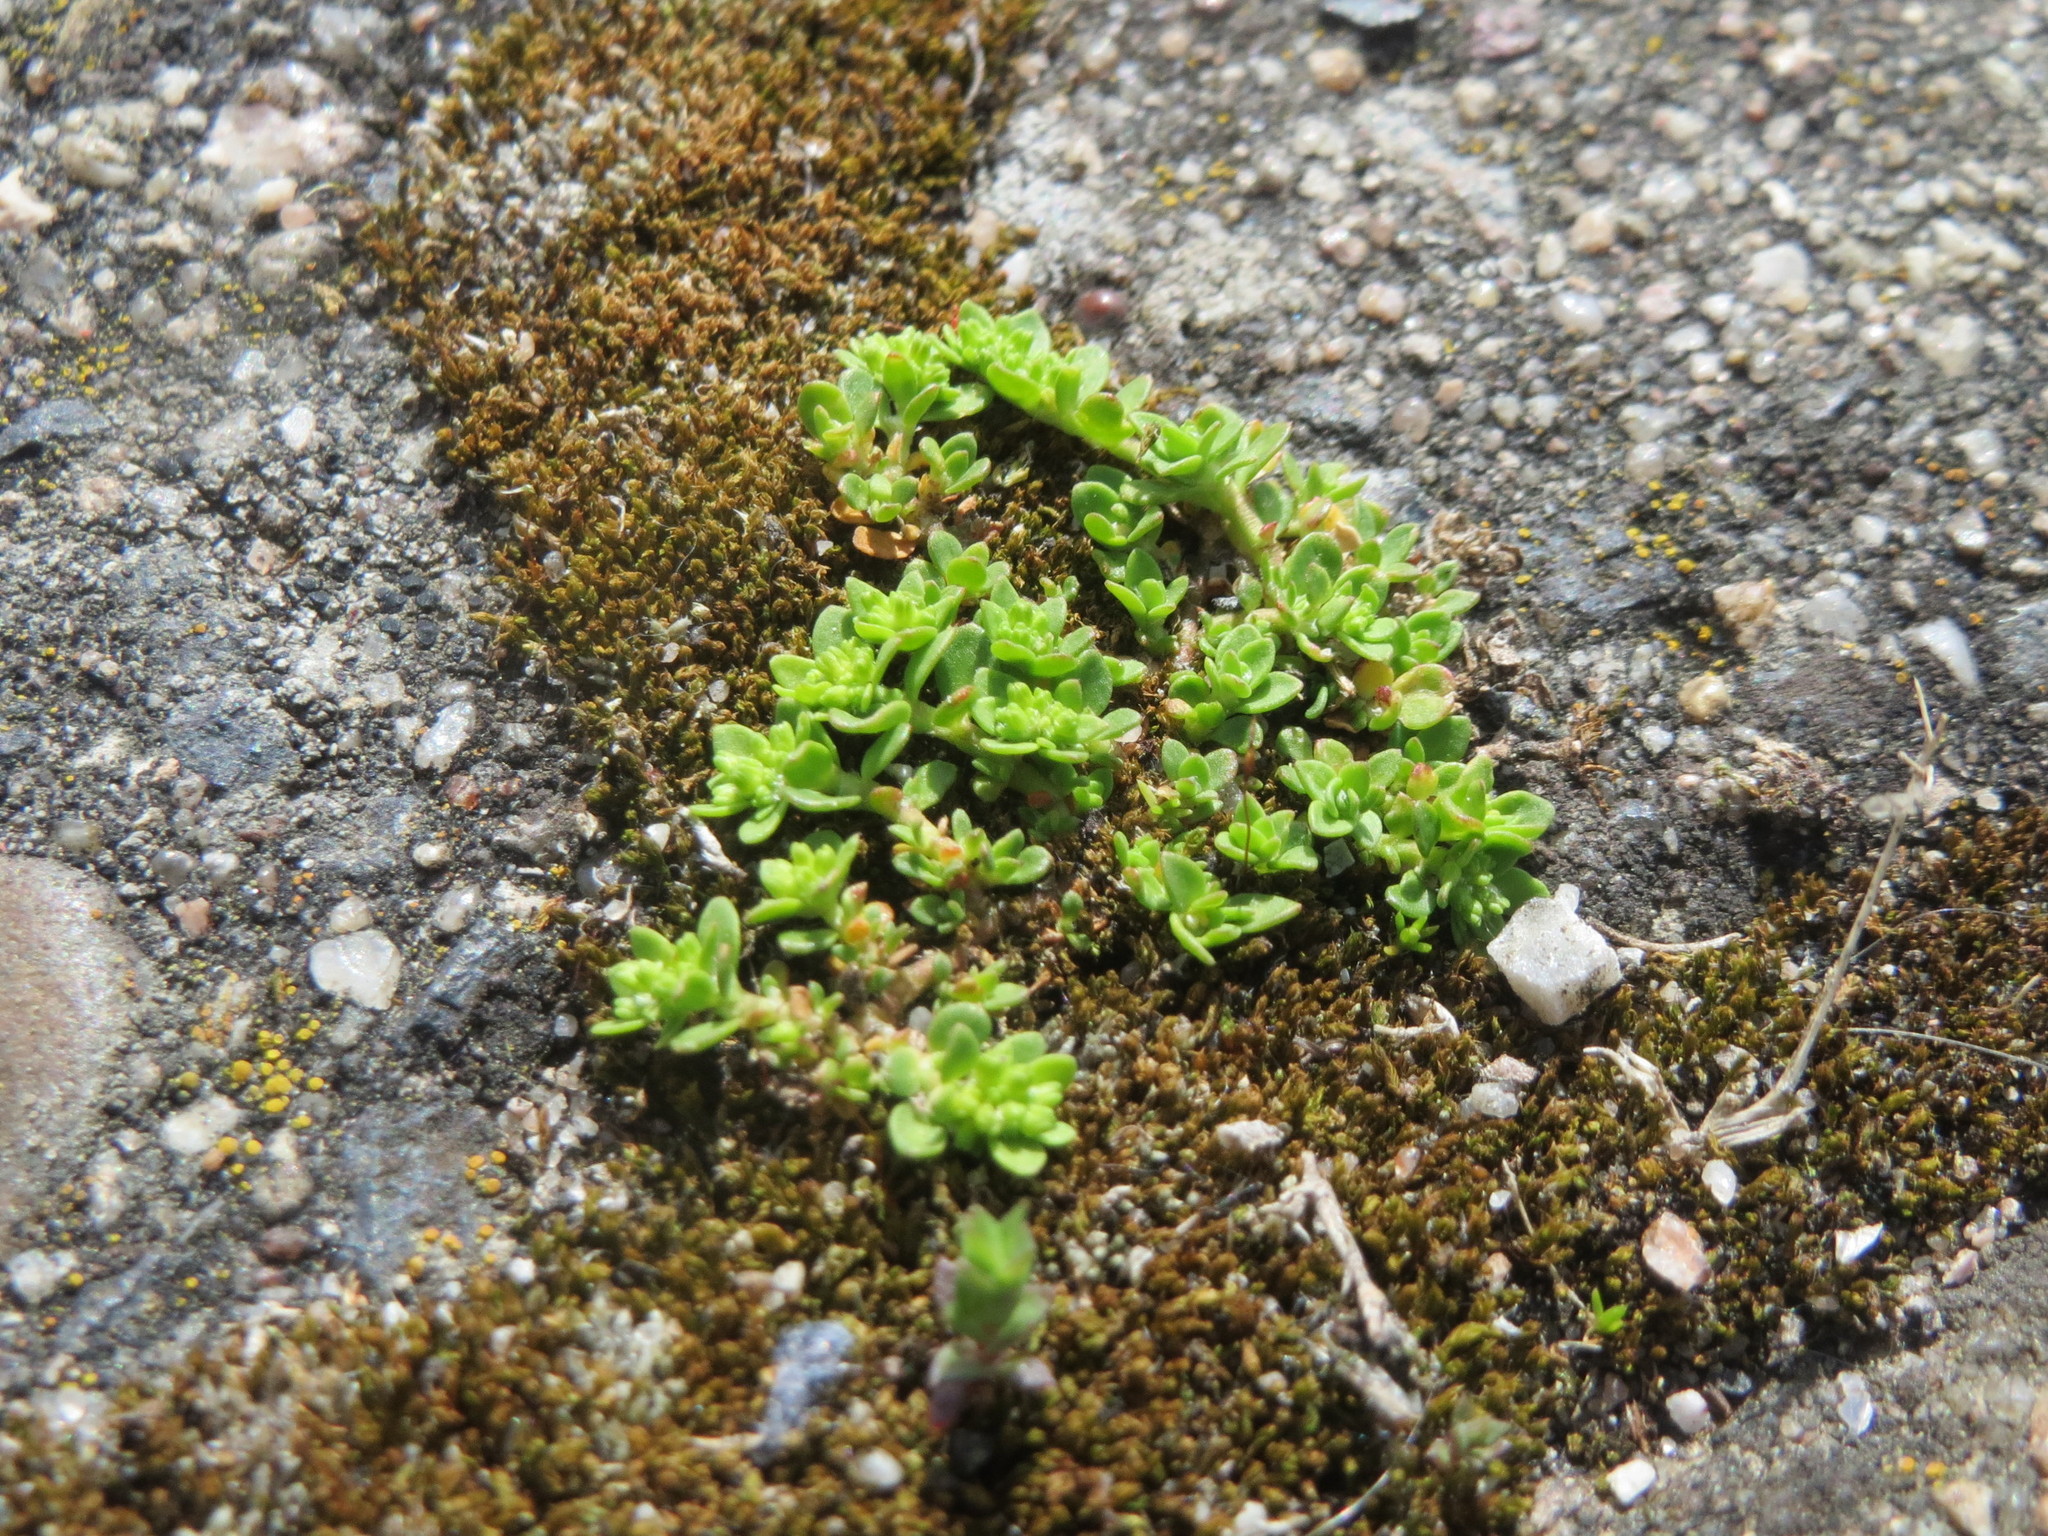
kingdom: Plantae
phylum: Tracheophyta
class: Magnoliopsida
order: Caryophyllales
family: Caryophyllaceae
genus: Herniaria
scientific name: Herniaria glabra
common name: Smooth rupturewort
